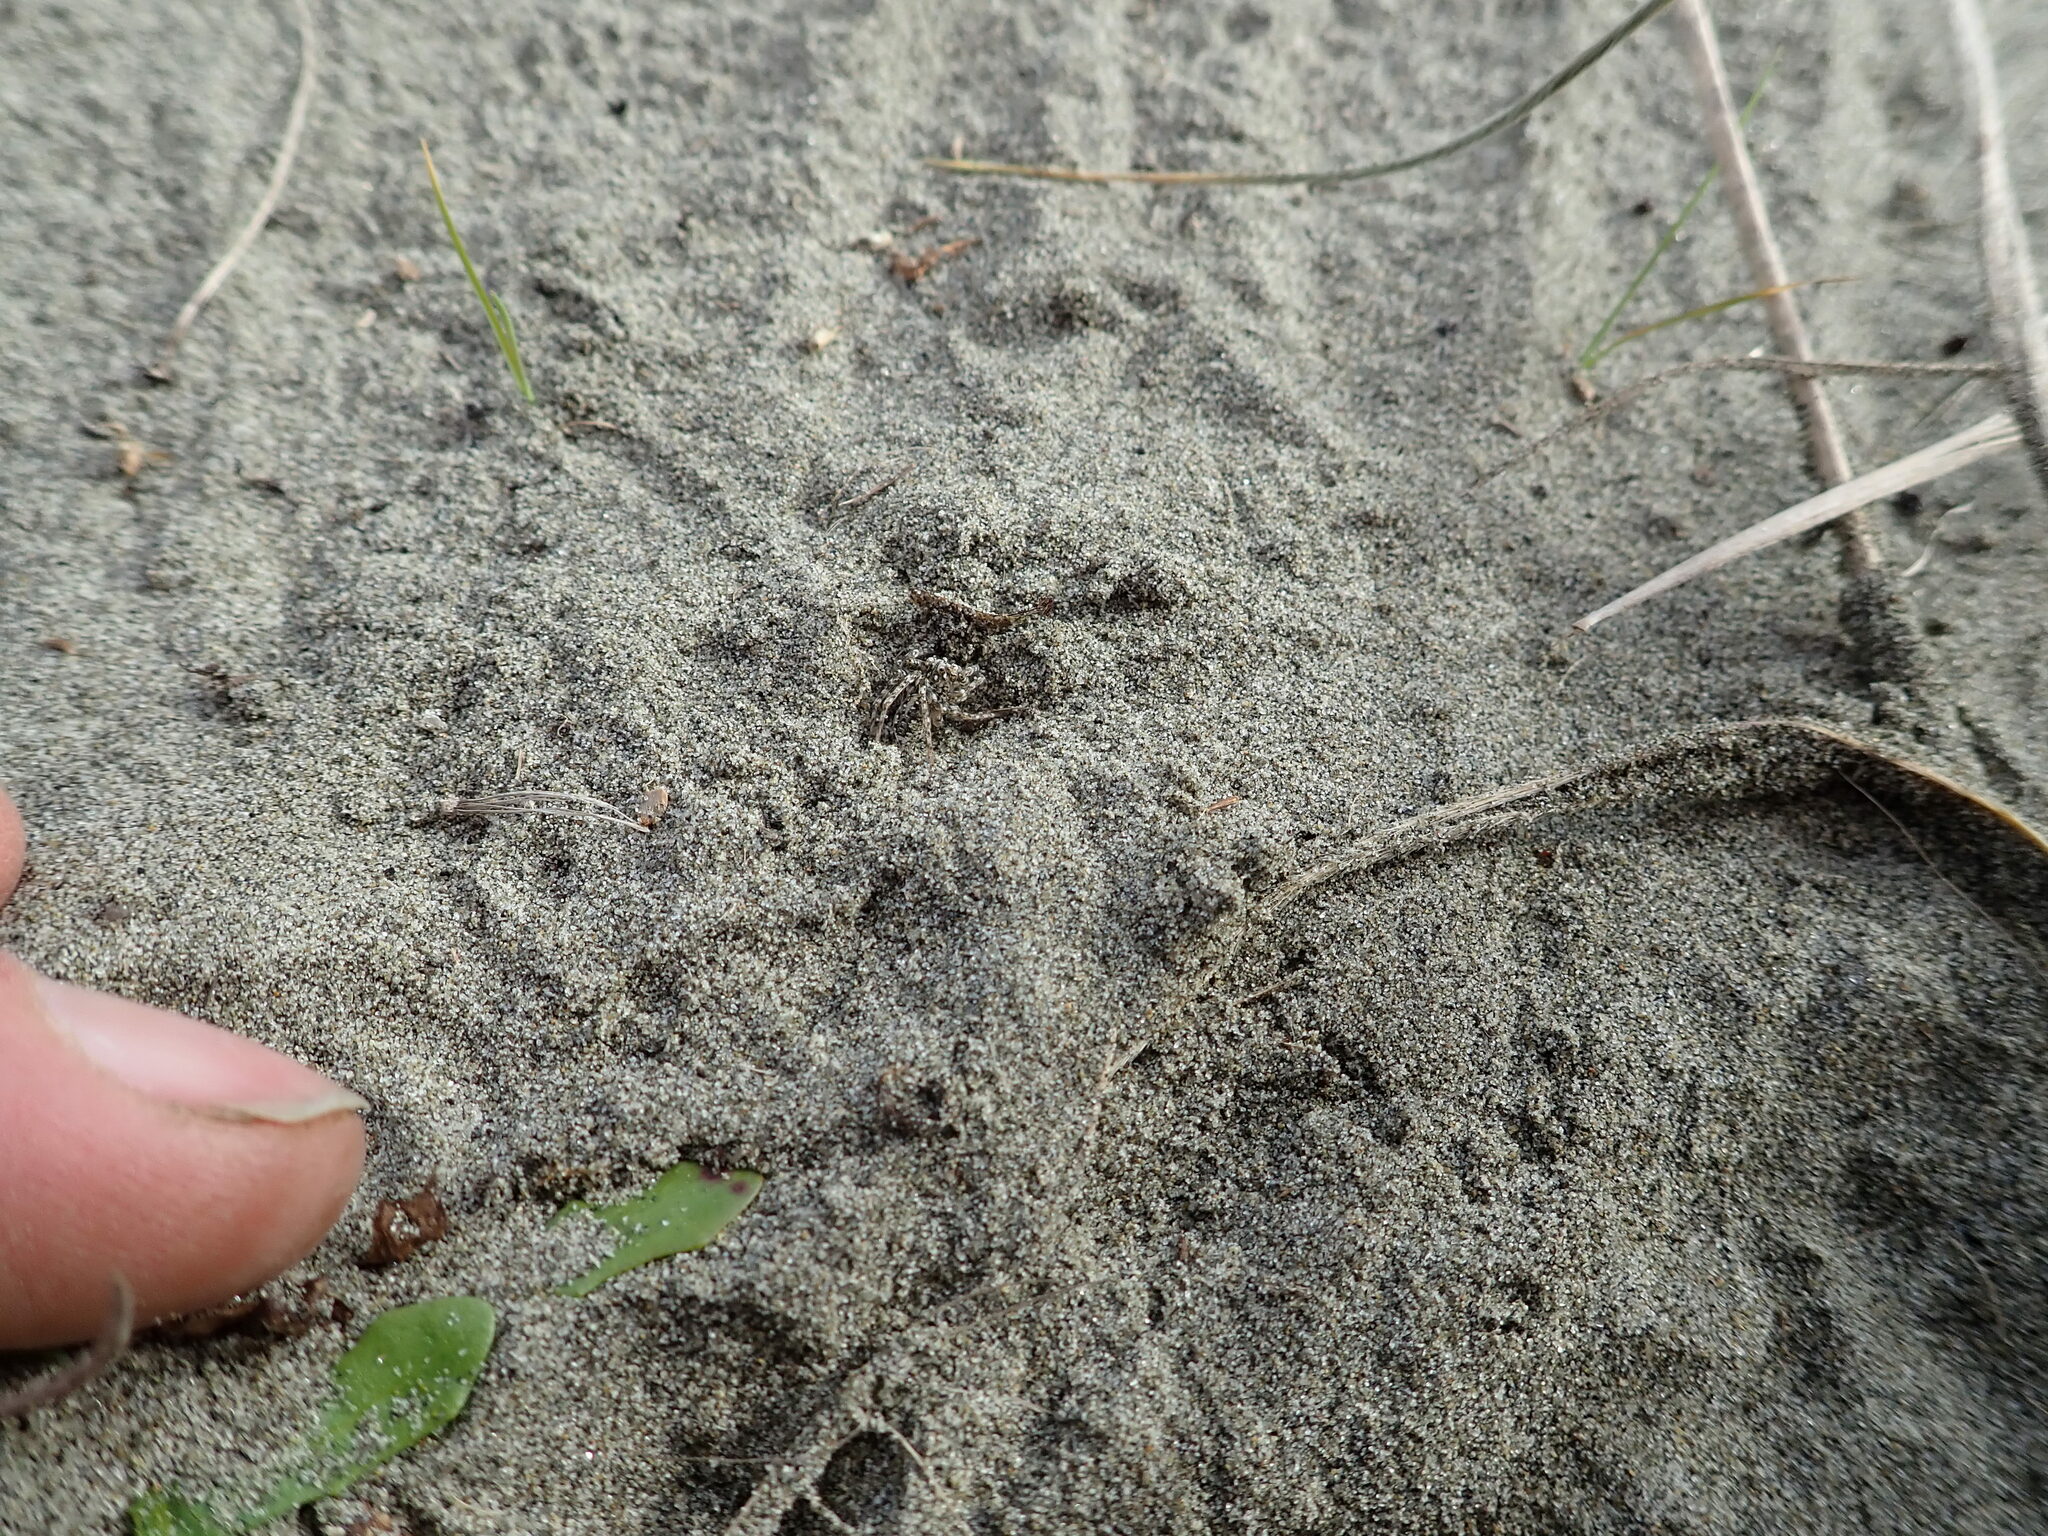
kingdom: Animalia
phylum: Arthropoda
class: Arachnida
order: Araneae
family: Lycosidae
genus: Anoteropsis
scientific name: Anoteropsis litoralis
